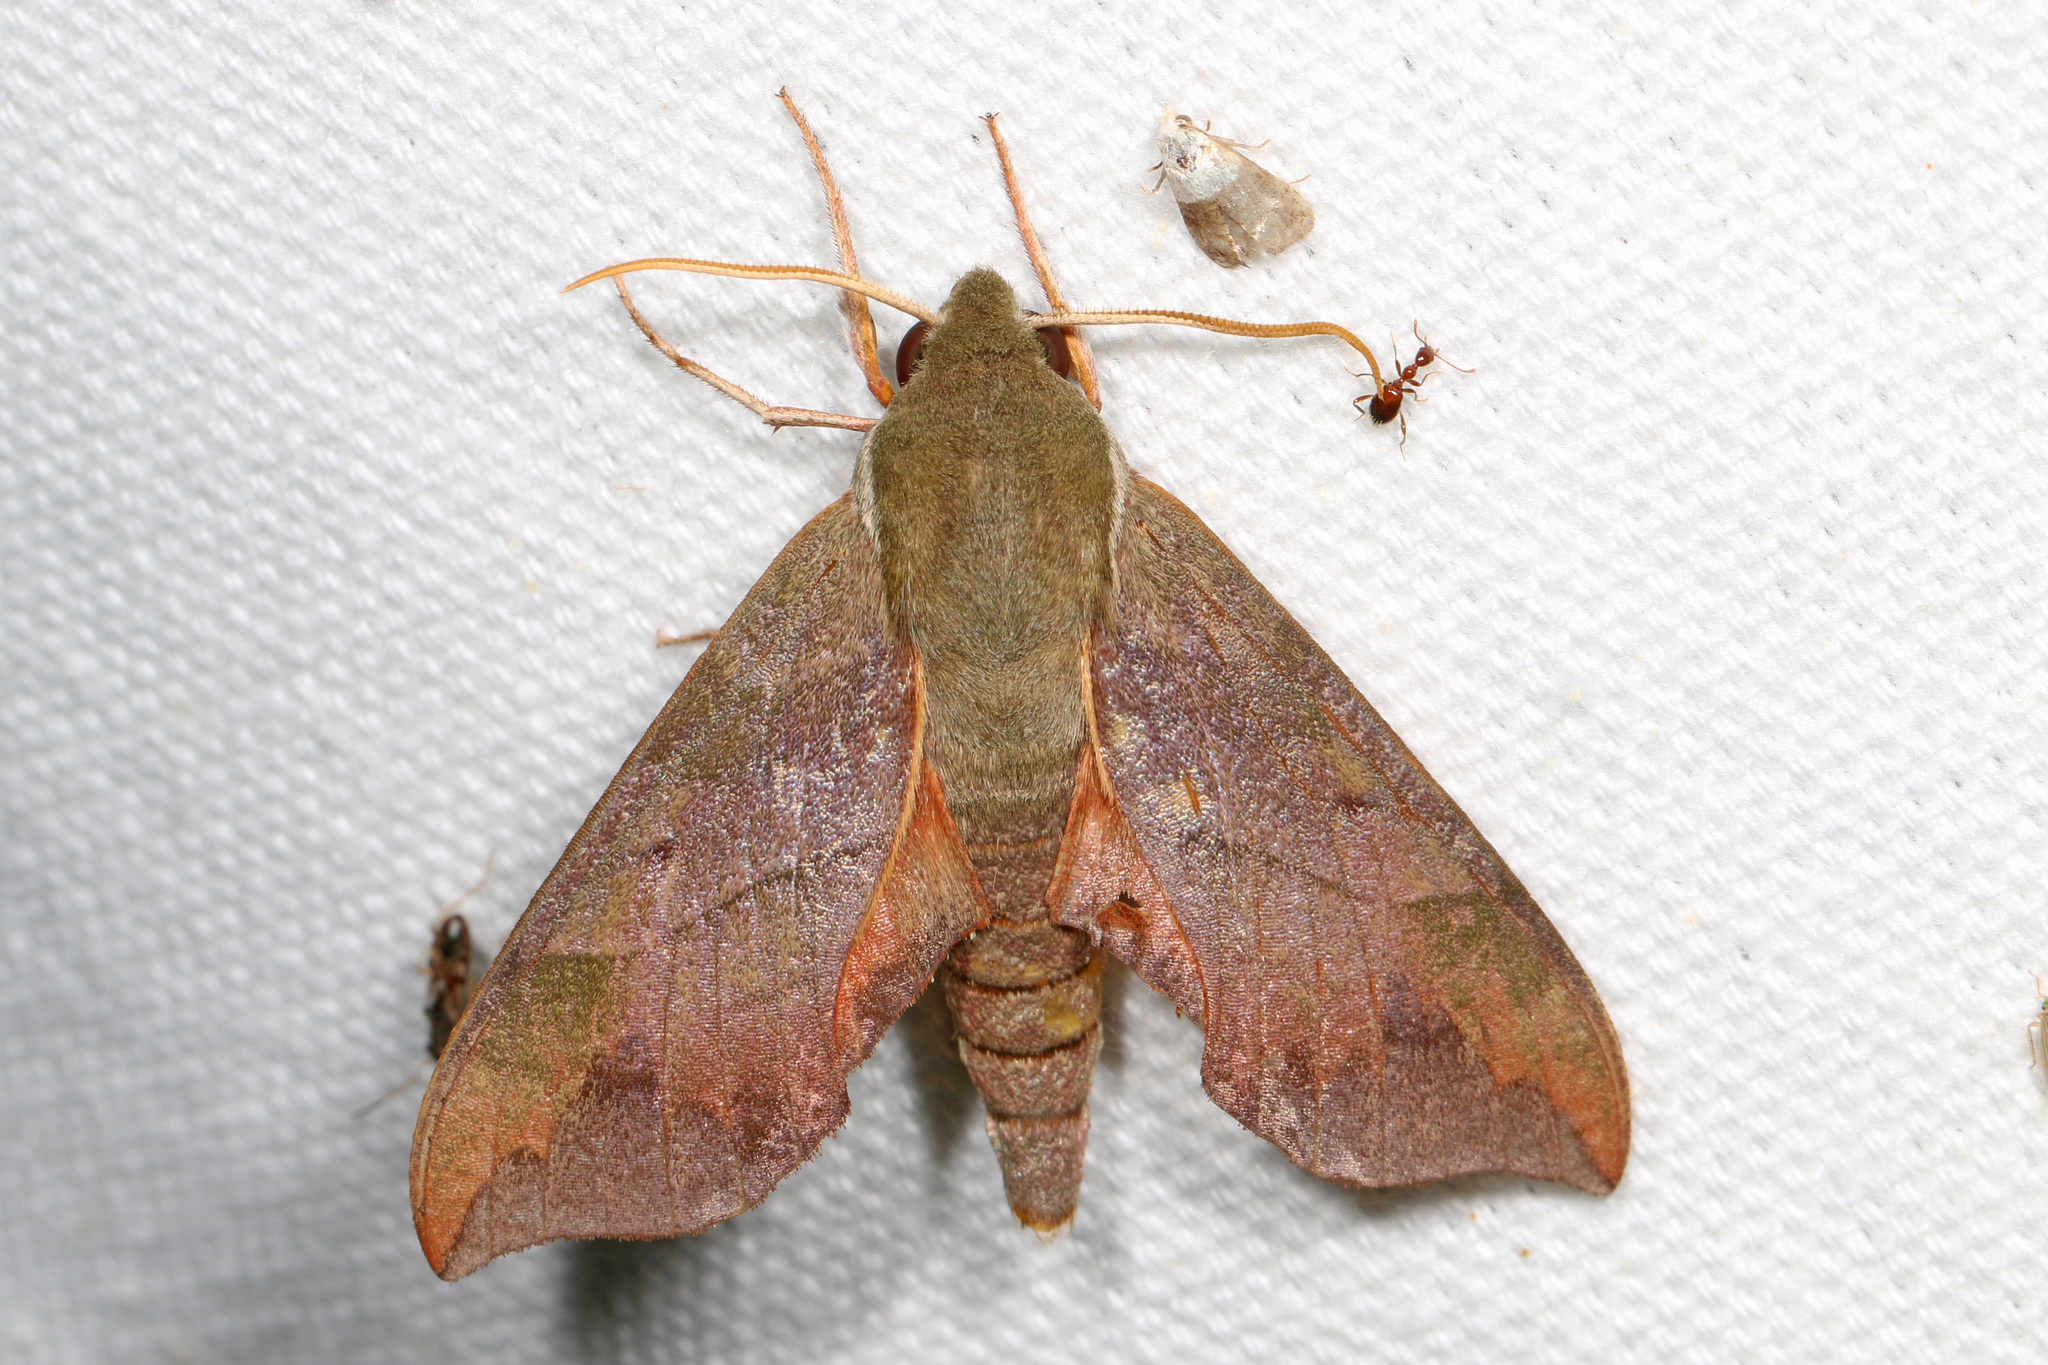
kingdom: Animalia
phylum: Arthropoda
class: Insecta
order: Lepidoptera
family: Sphingidae
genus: Darapsa
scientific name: Darapsa myron
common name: Hog sphinx
